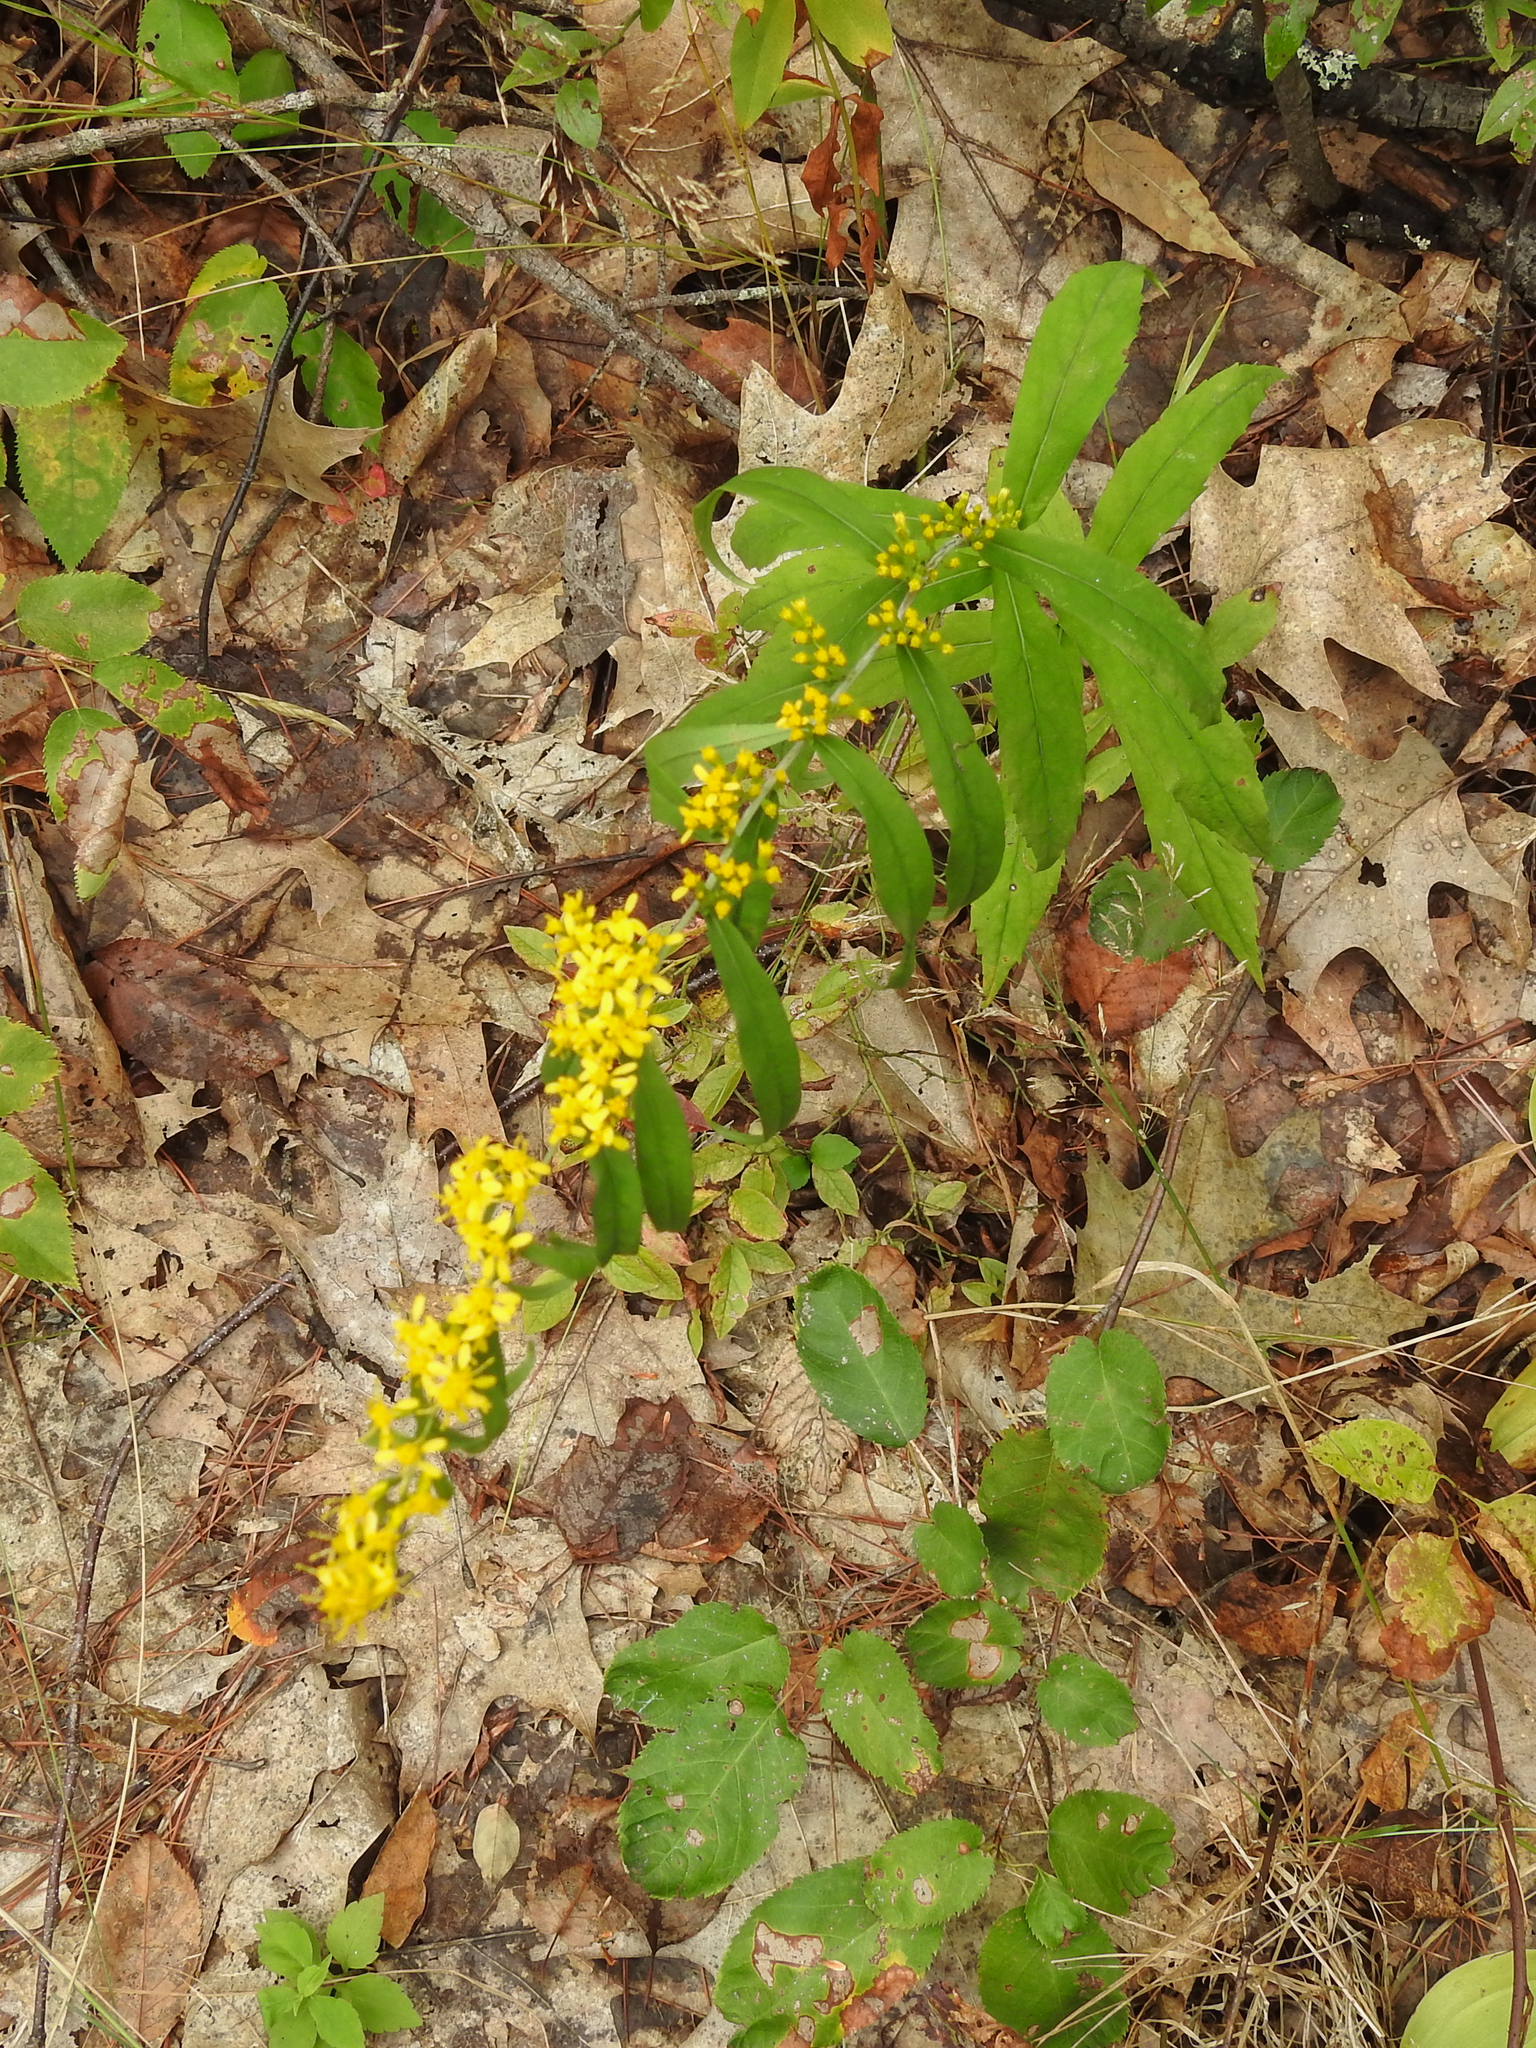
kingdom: Plantae
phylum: Tracheophyta
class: Magnoliopsida
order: Asterales
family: Asteraceae
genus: Solidago
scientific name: Solidago caesia
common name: Woodland goldenrod
